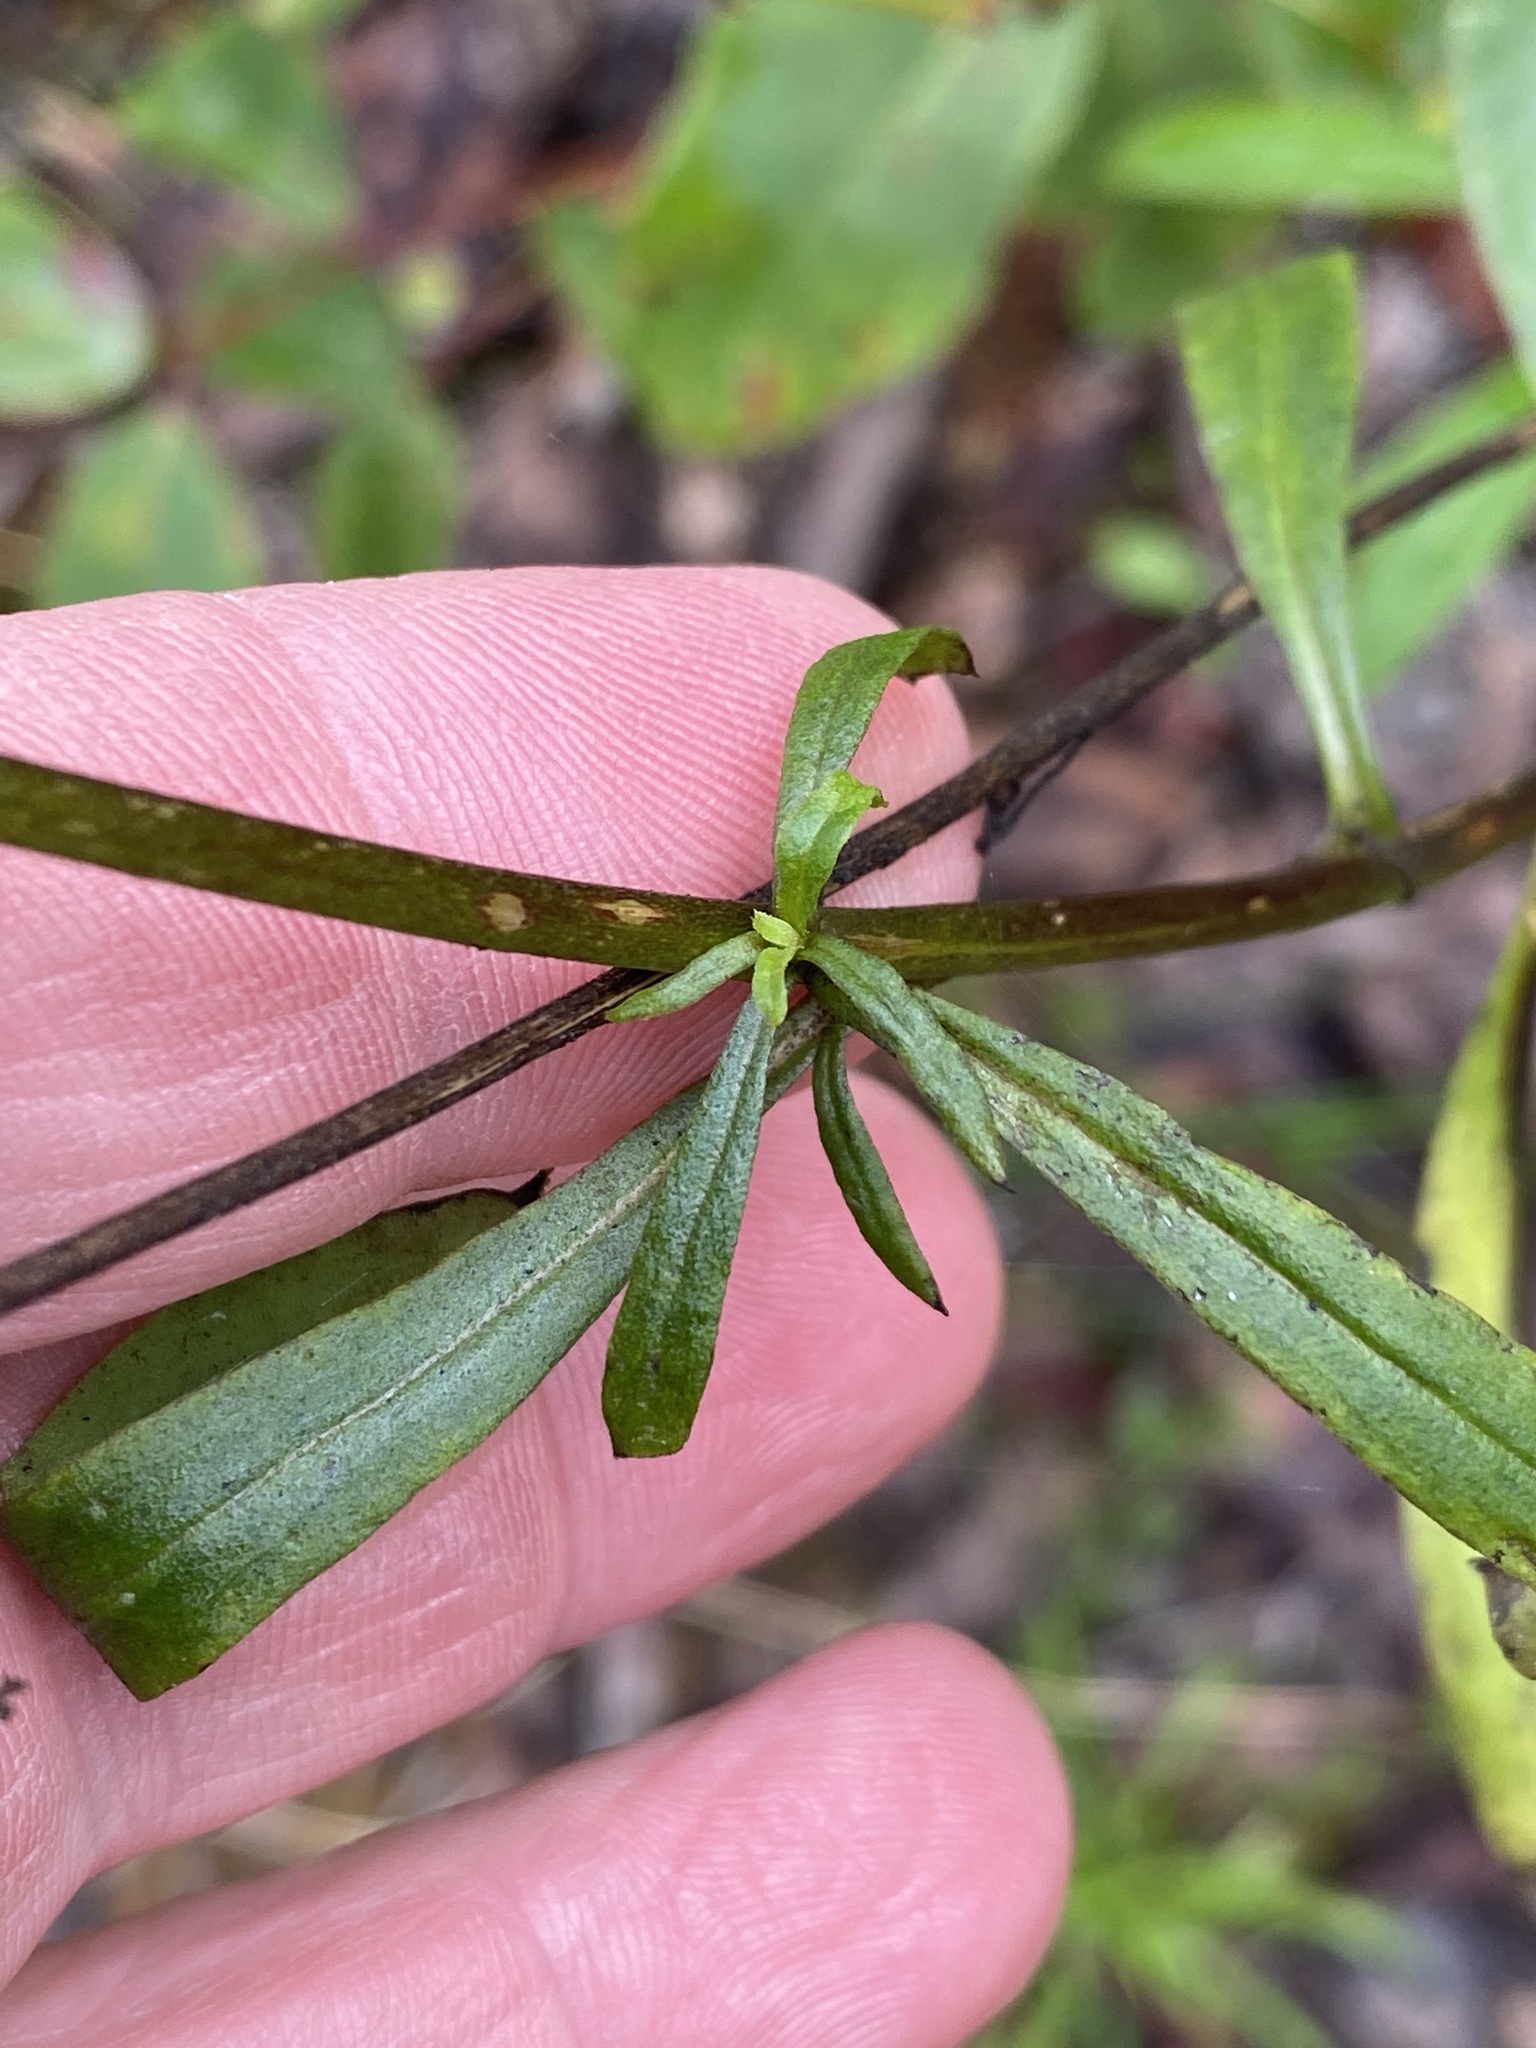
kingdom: Plantae
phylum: Tracheophyta
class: Magnoliopsida
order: Asterales
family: Asteraceae
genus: Xerochrysum
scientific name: Xerochrysum bracteatum
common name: Bracted strawflower
